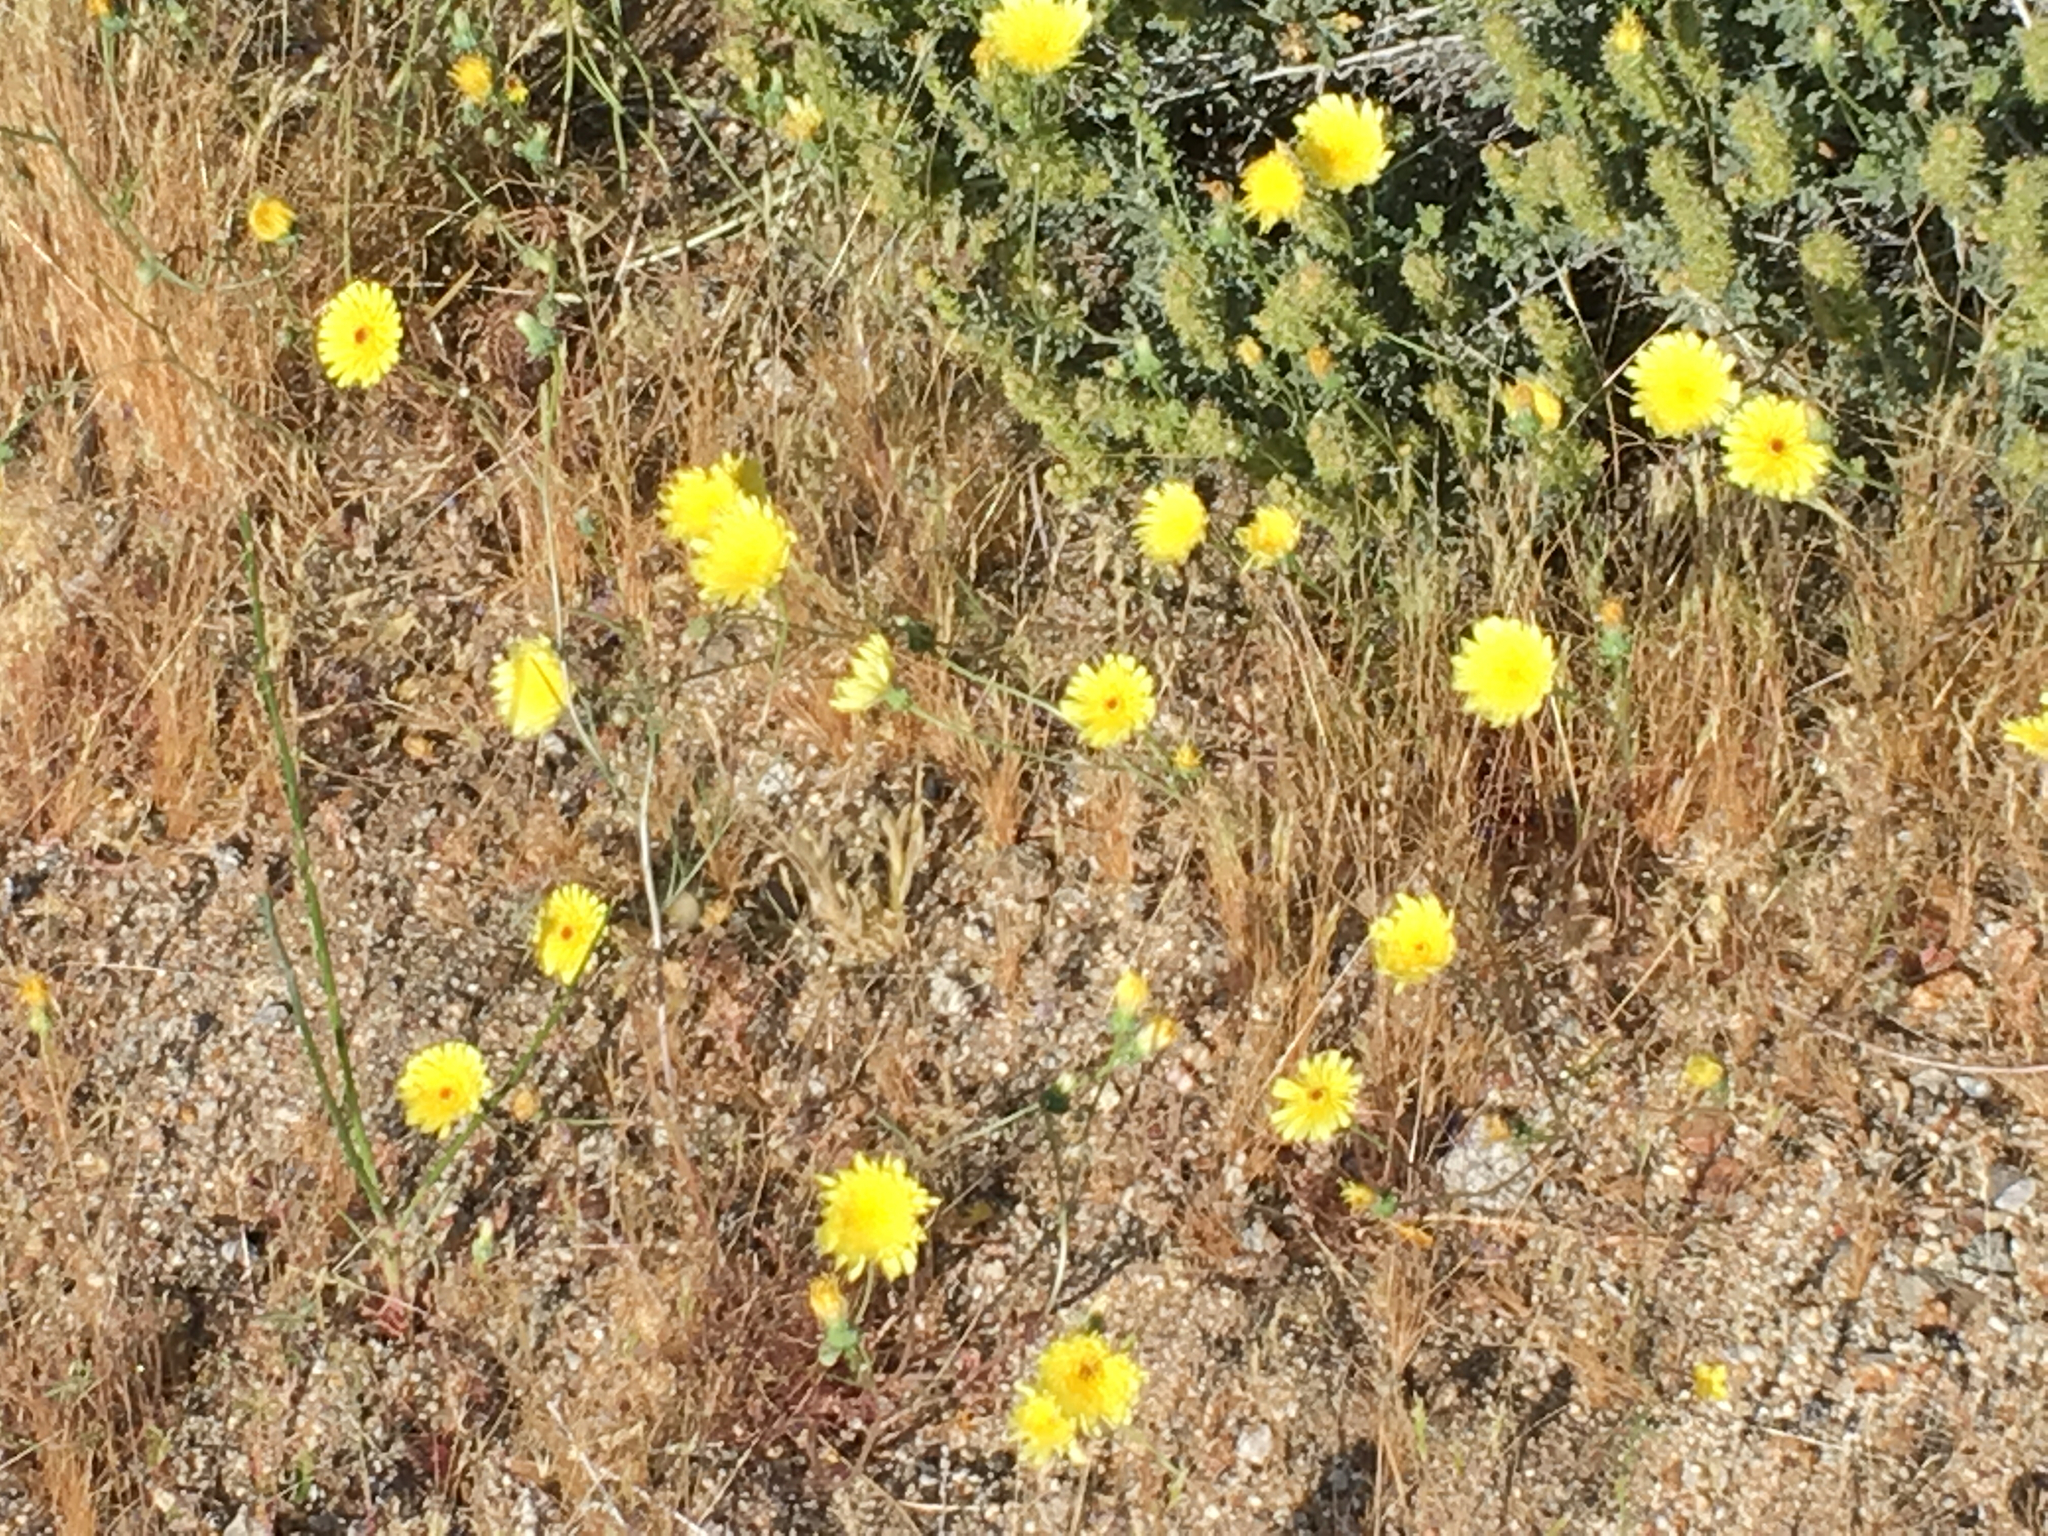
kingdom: Plantae
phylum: Tracheophyta
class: Magnoliopsida
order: Asterales
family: Asteraceae
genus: Malacothrix
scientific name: Malacothrix glabrata
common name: Smooth desert-dandelion
